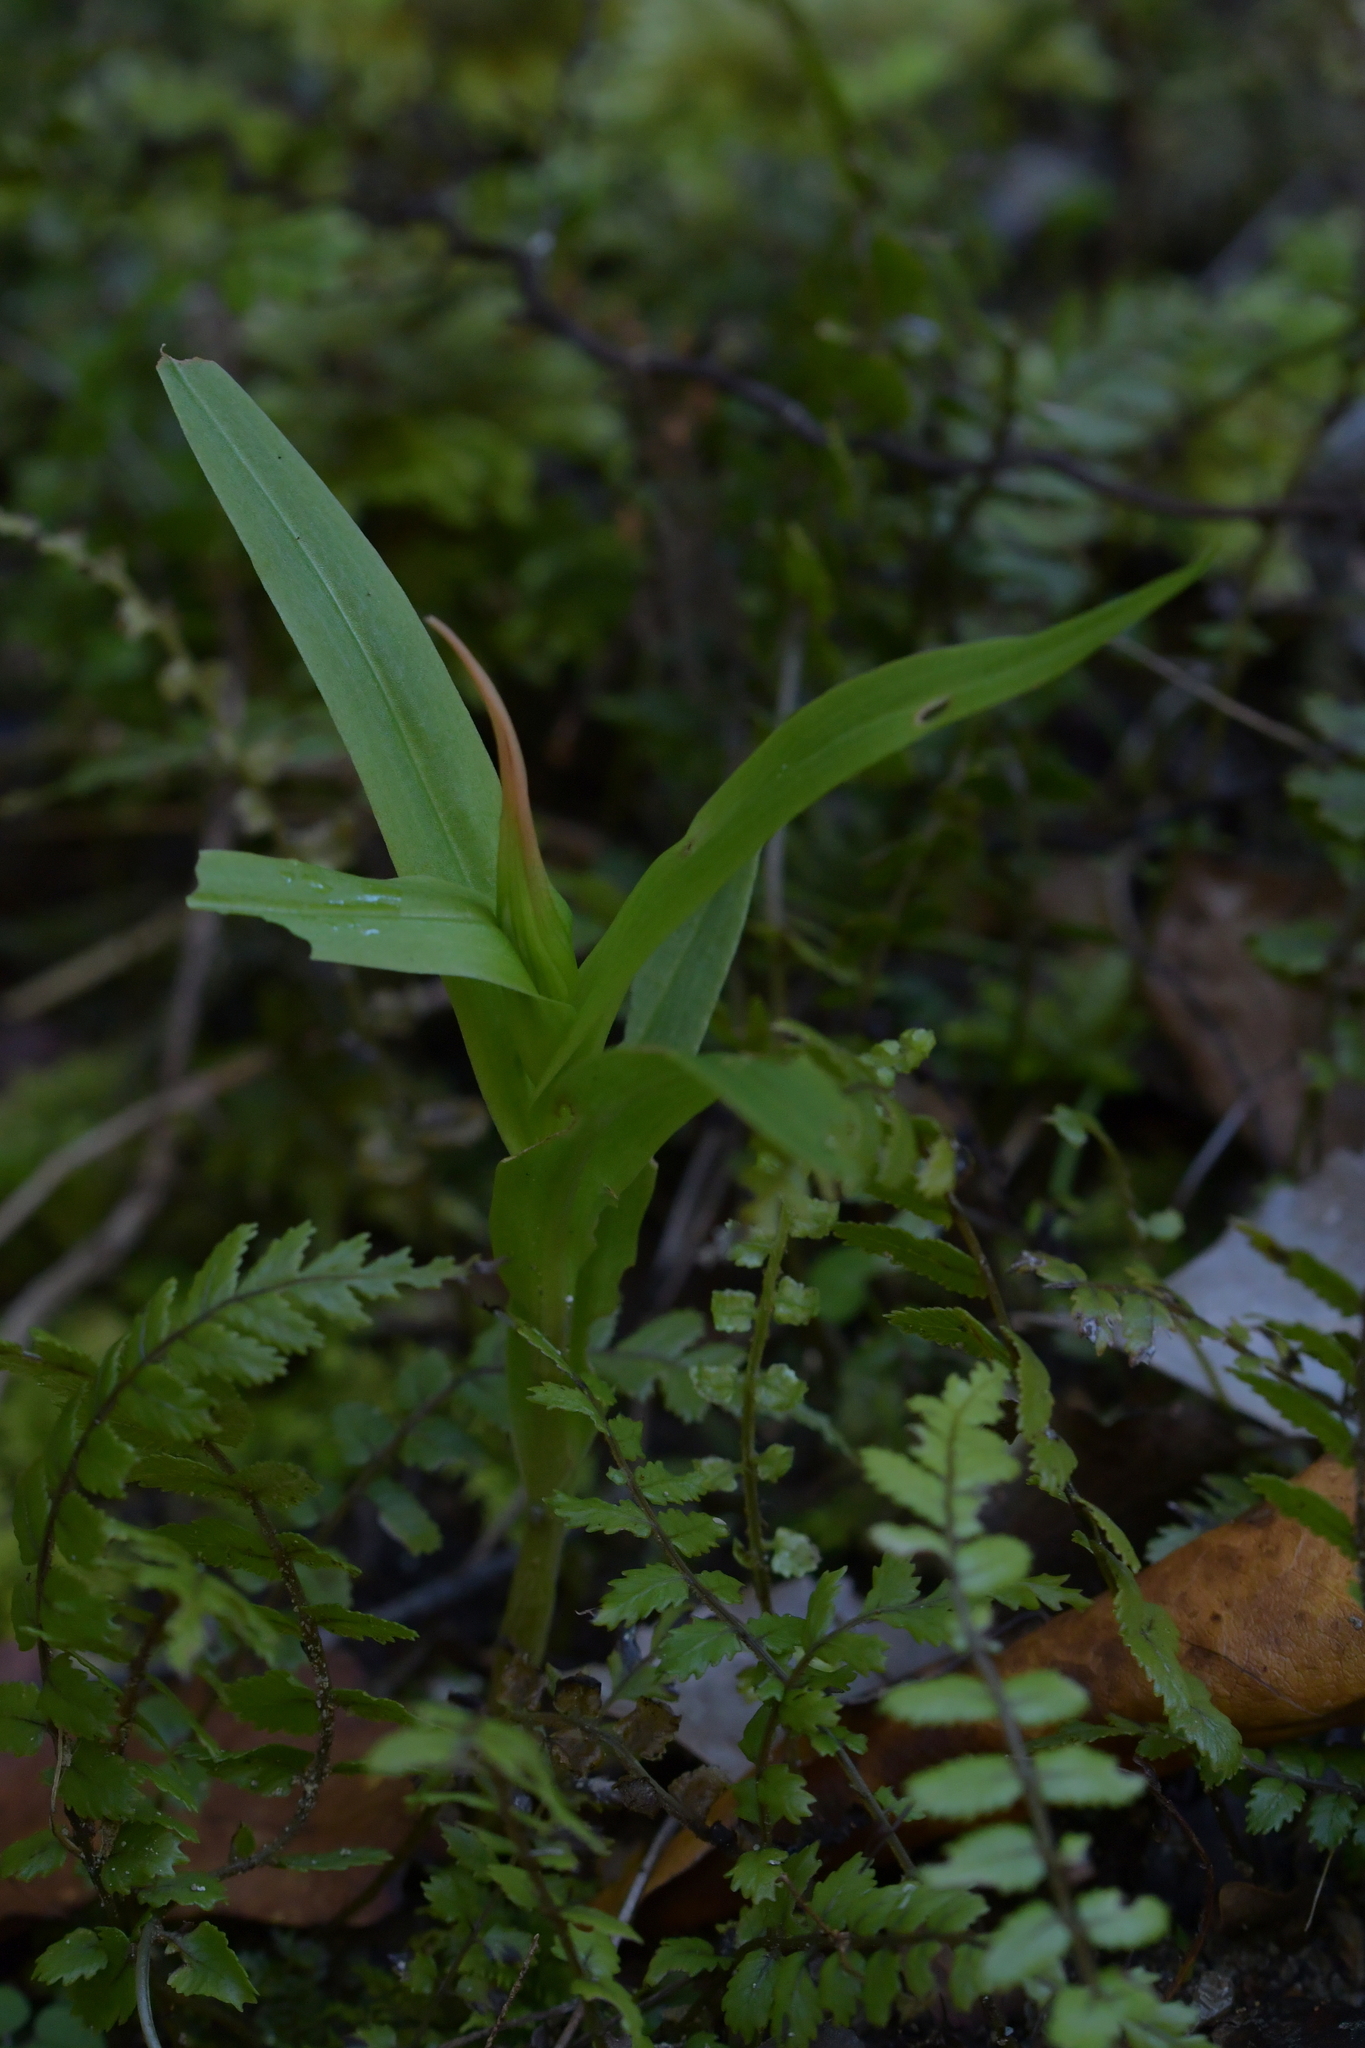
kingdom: Plantae
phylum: Tracheophyta
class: Liliopsida
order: Asparagales
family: Orchidaceae
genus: Pterostylis
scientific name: Pterostylis banksii
